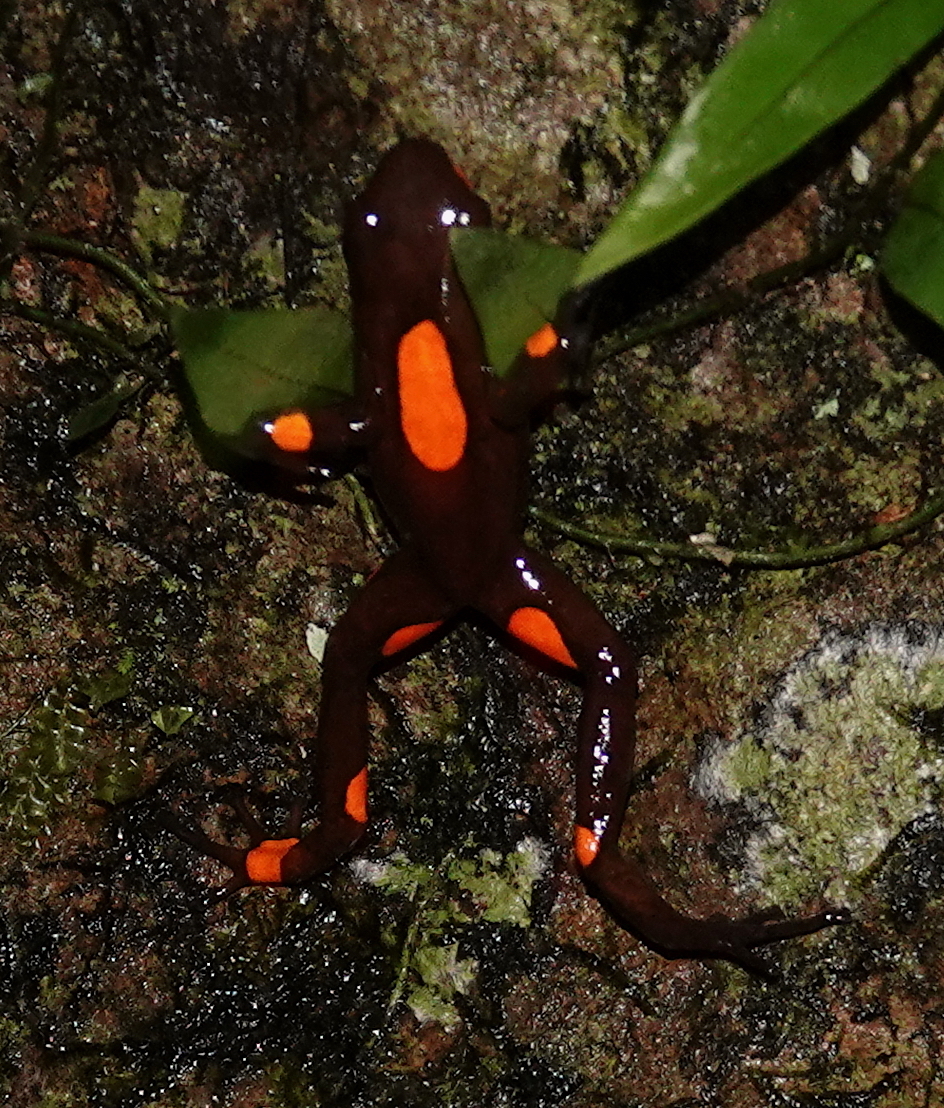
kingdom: Animalia
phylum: Chordata
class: Amphibia
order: Anura
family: Dendrobatidae
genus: Oophaga
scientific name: Oophaga histrionica
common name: Common poison-arrow frog
